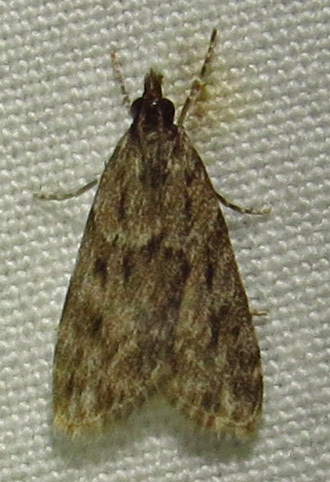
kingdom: Animalia
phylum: Arthropoda
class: Insecta
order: Lepidoptera
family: Crambidae
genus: Eudonia
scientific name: Eudonia heterosalis
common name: Mcdunnough's eudonia
